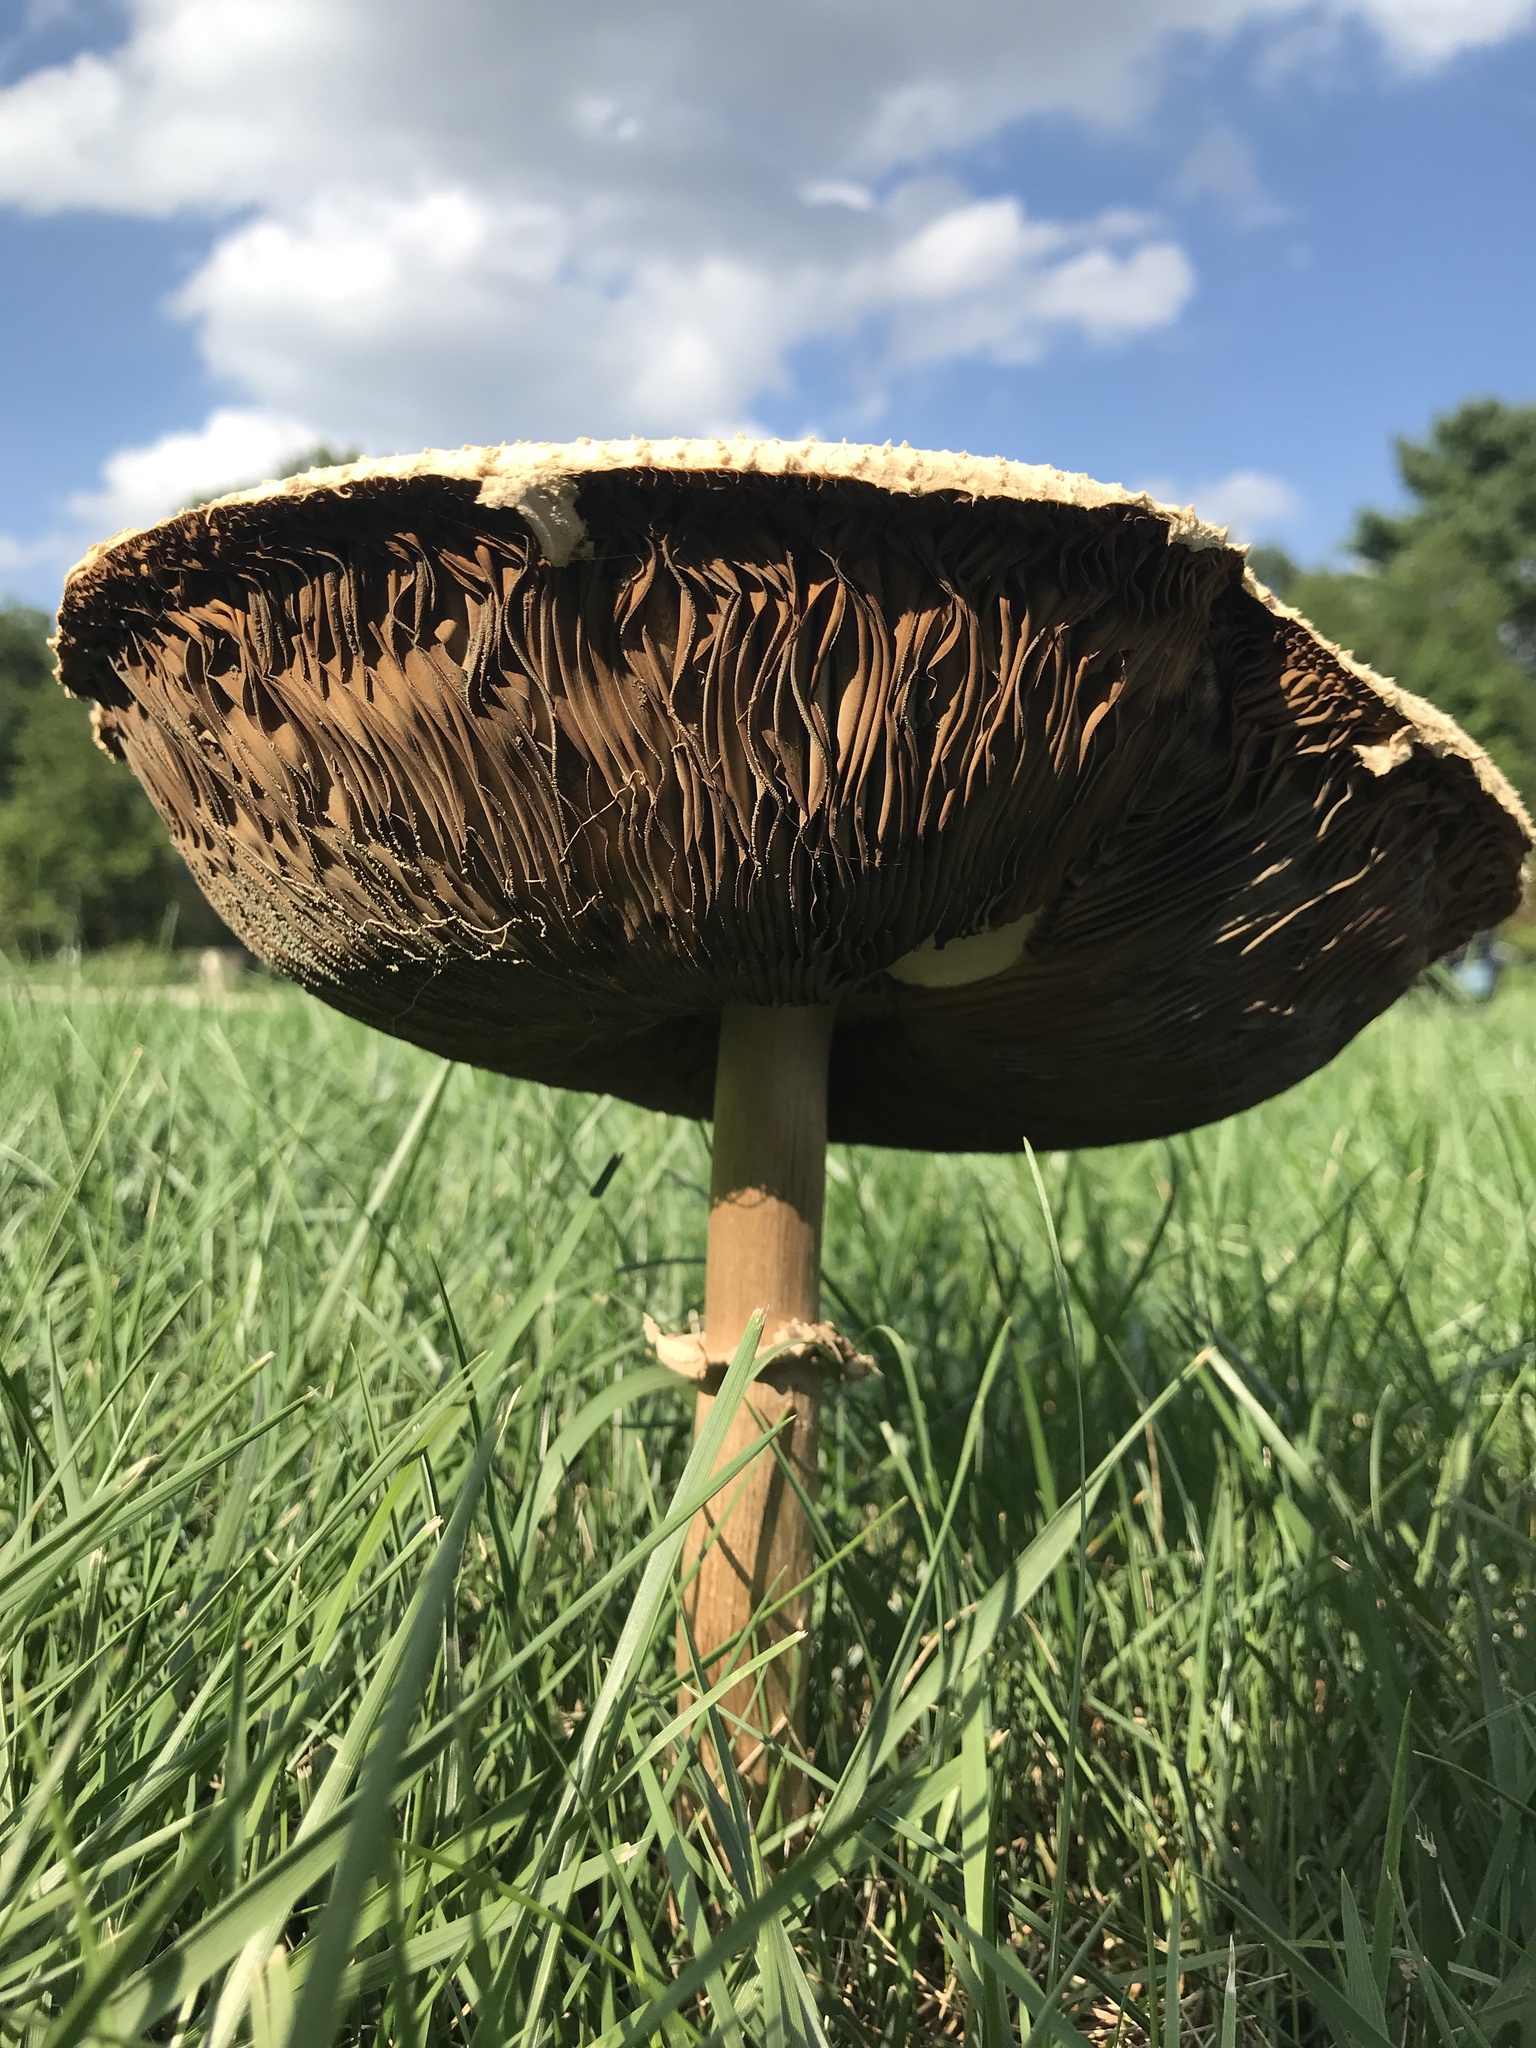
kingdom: Fungi
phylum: Basidiomycota
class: Agaricomycetes
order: Agaricales
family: Agaricaceae
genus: Chlorophyllum
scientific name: Chlorophyllum molybdites
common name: False parasol
